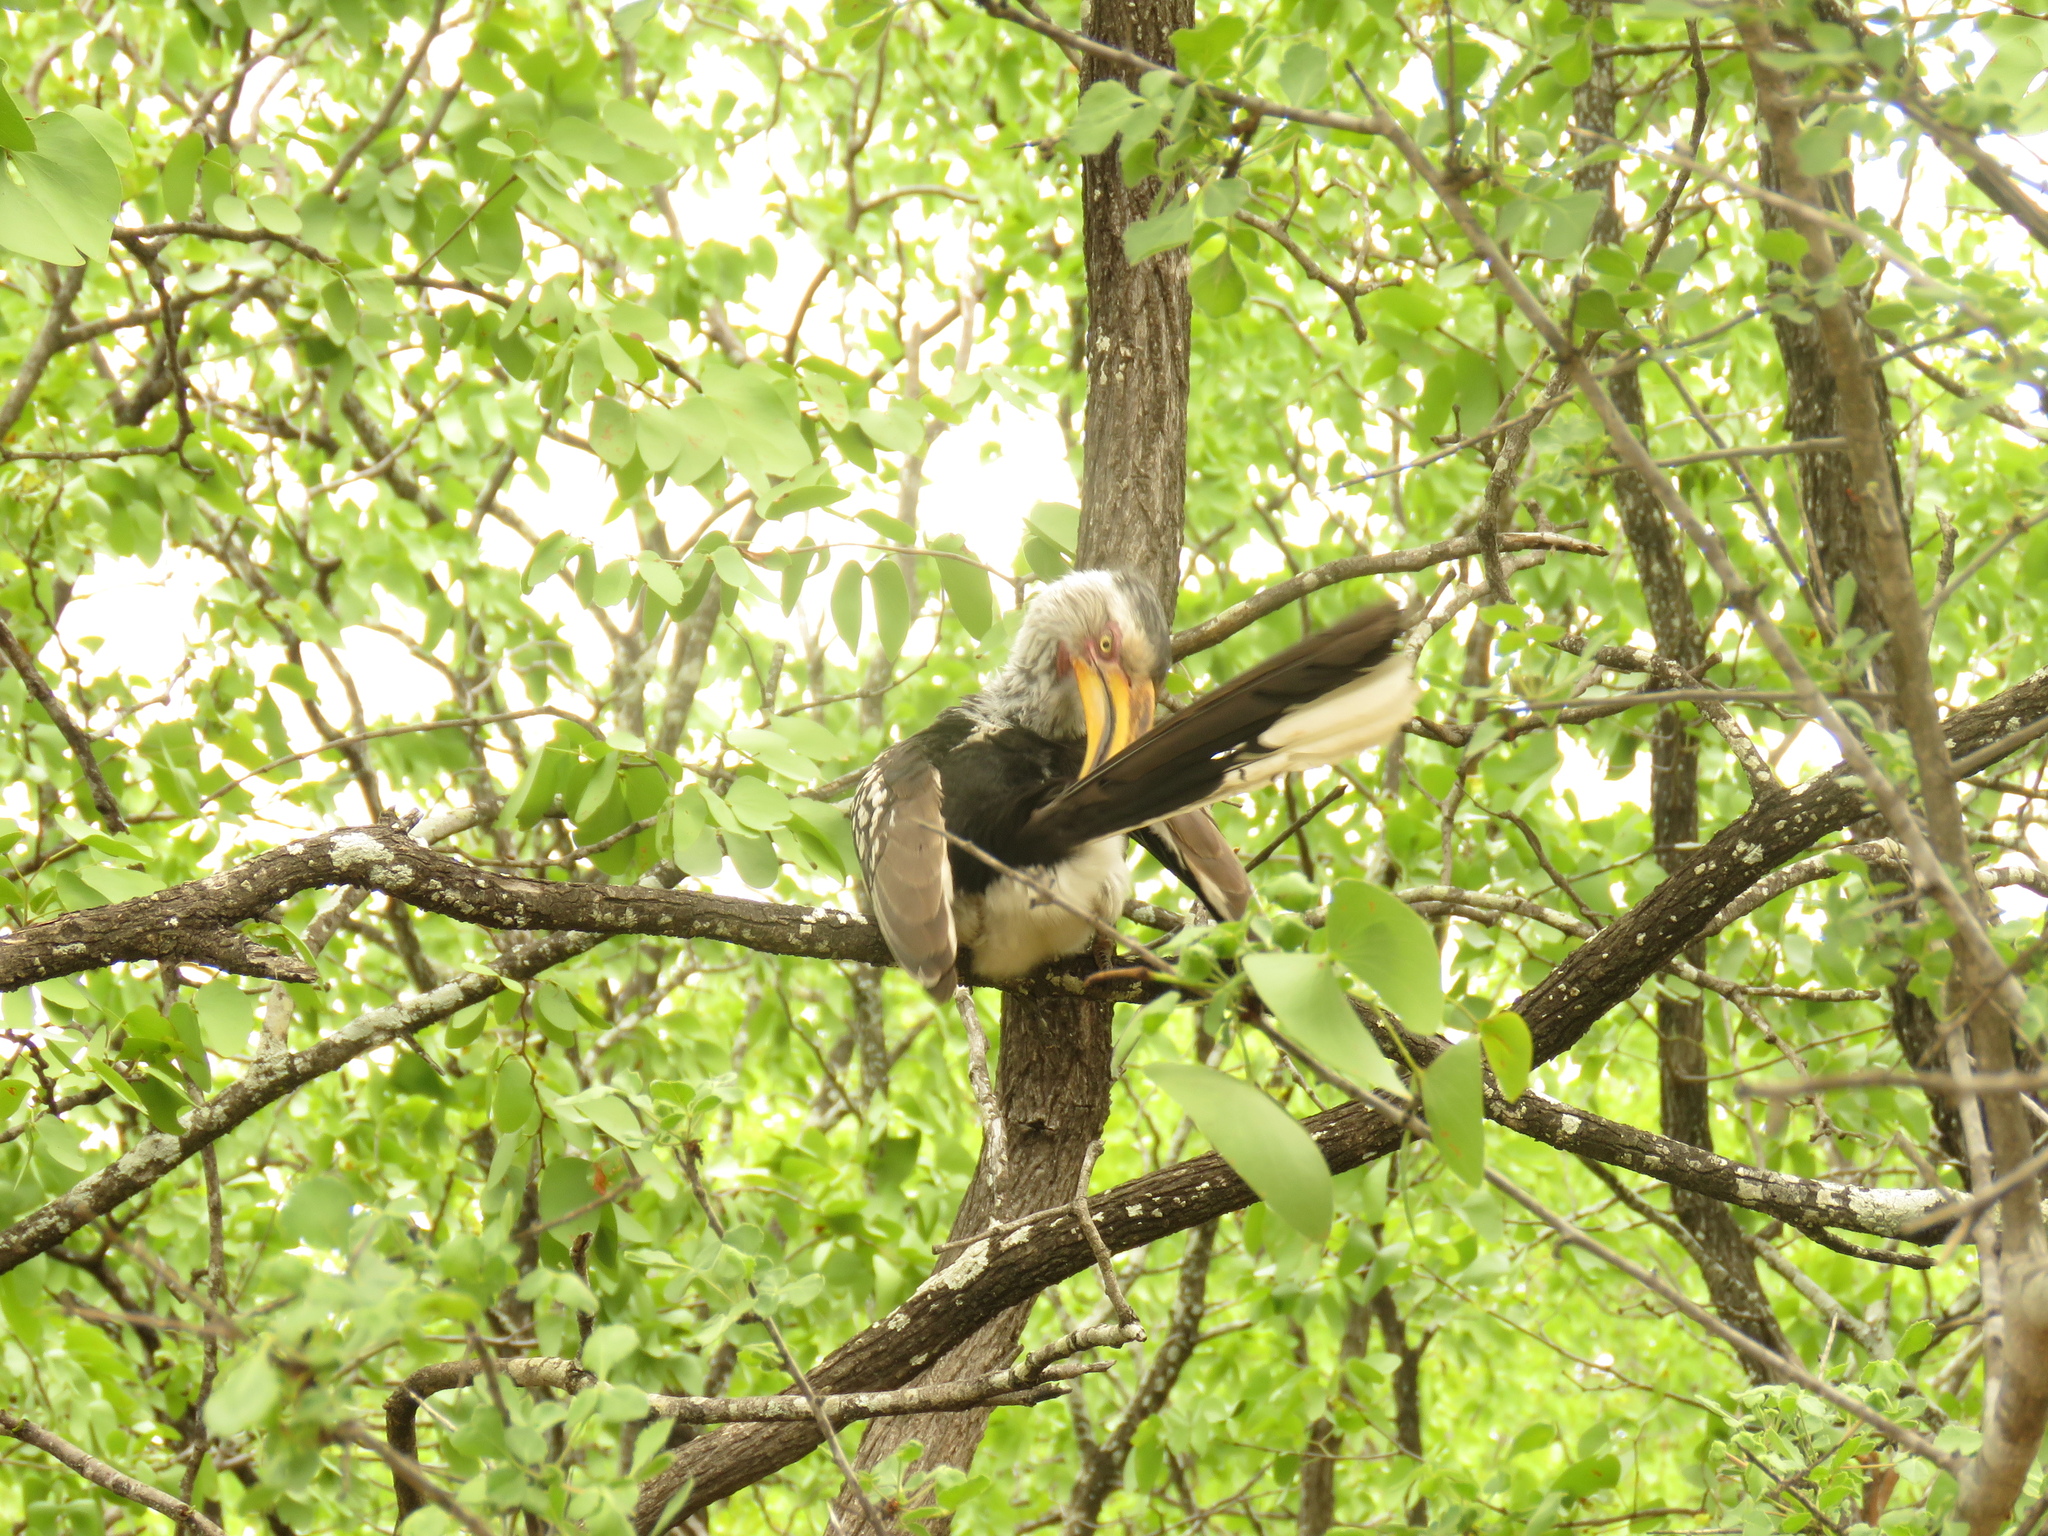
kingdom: Animalia
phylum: Chordata
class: Aves
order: Bucerotiformes
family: Bucerotidae
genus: Tockus
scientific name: Tockus leucomelas
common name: Southern yellow-billed hornbill
